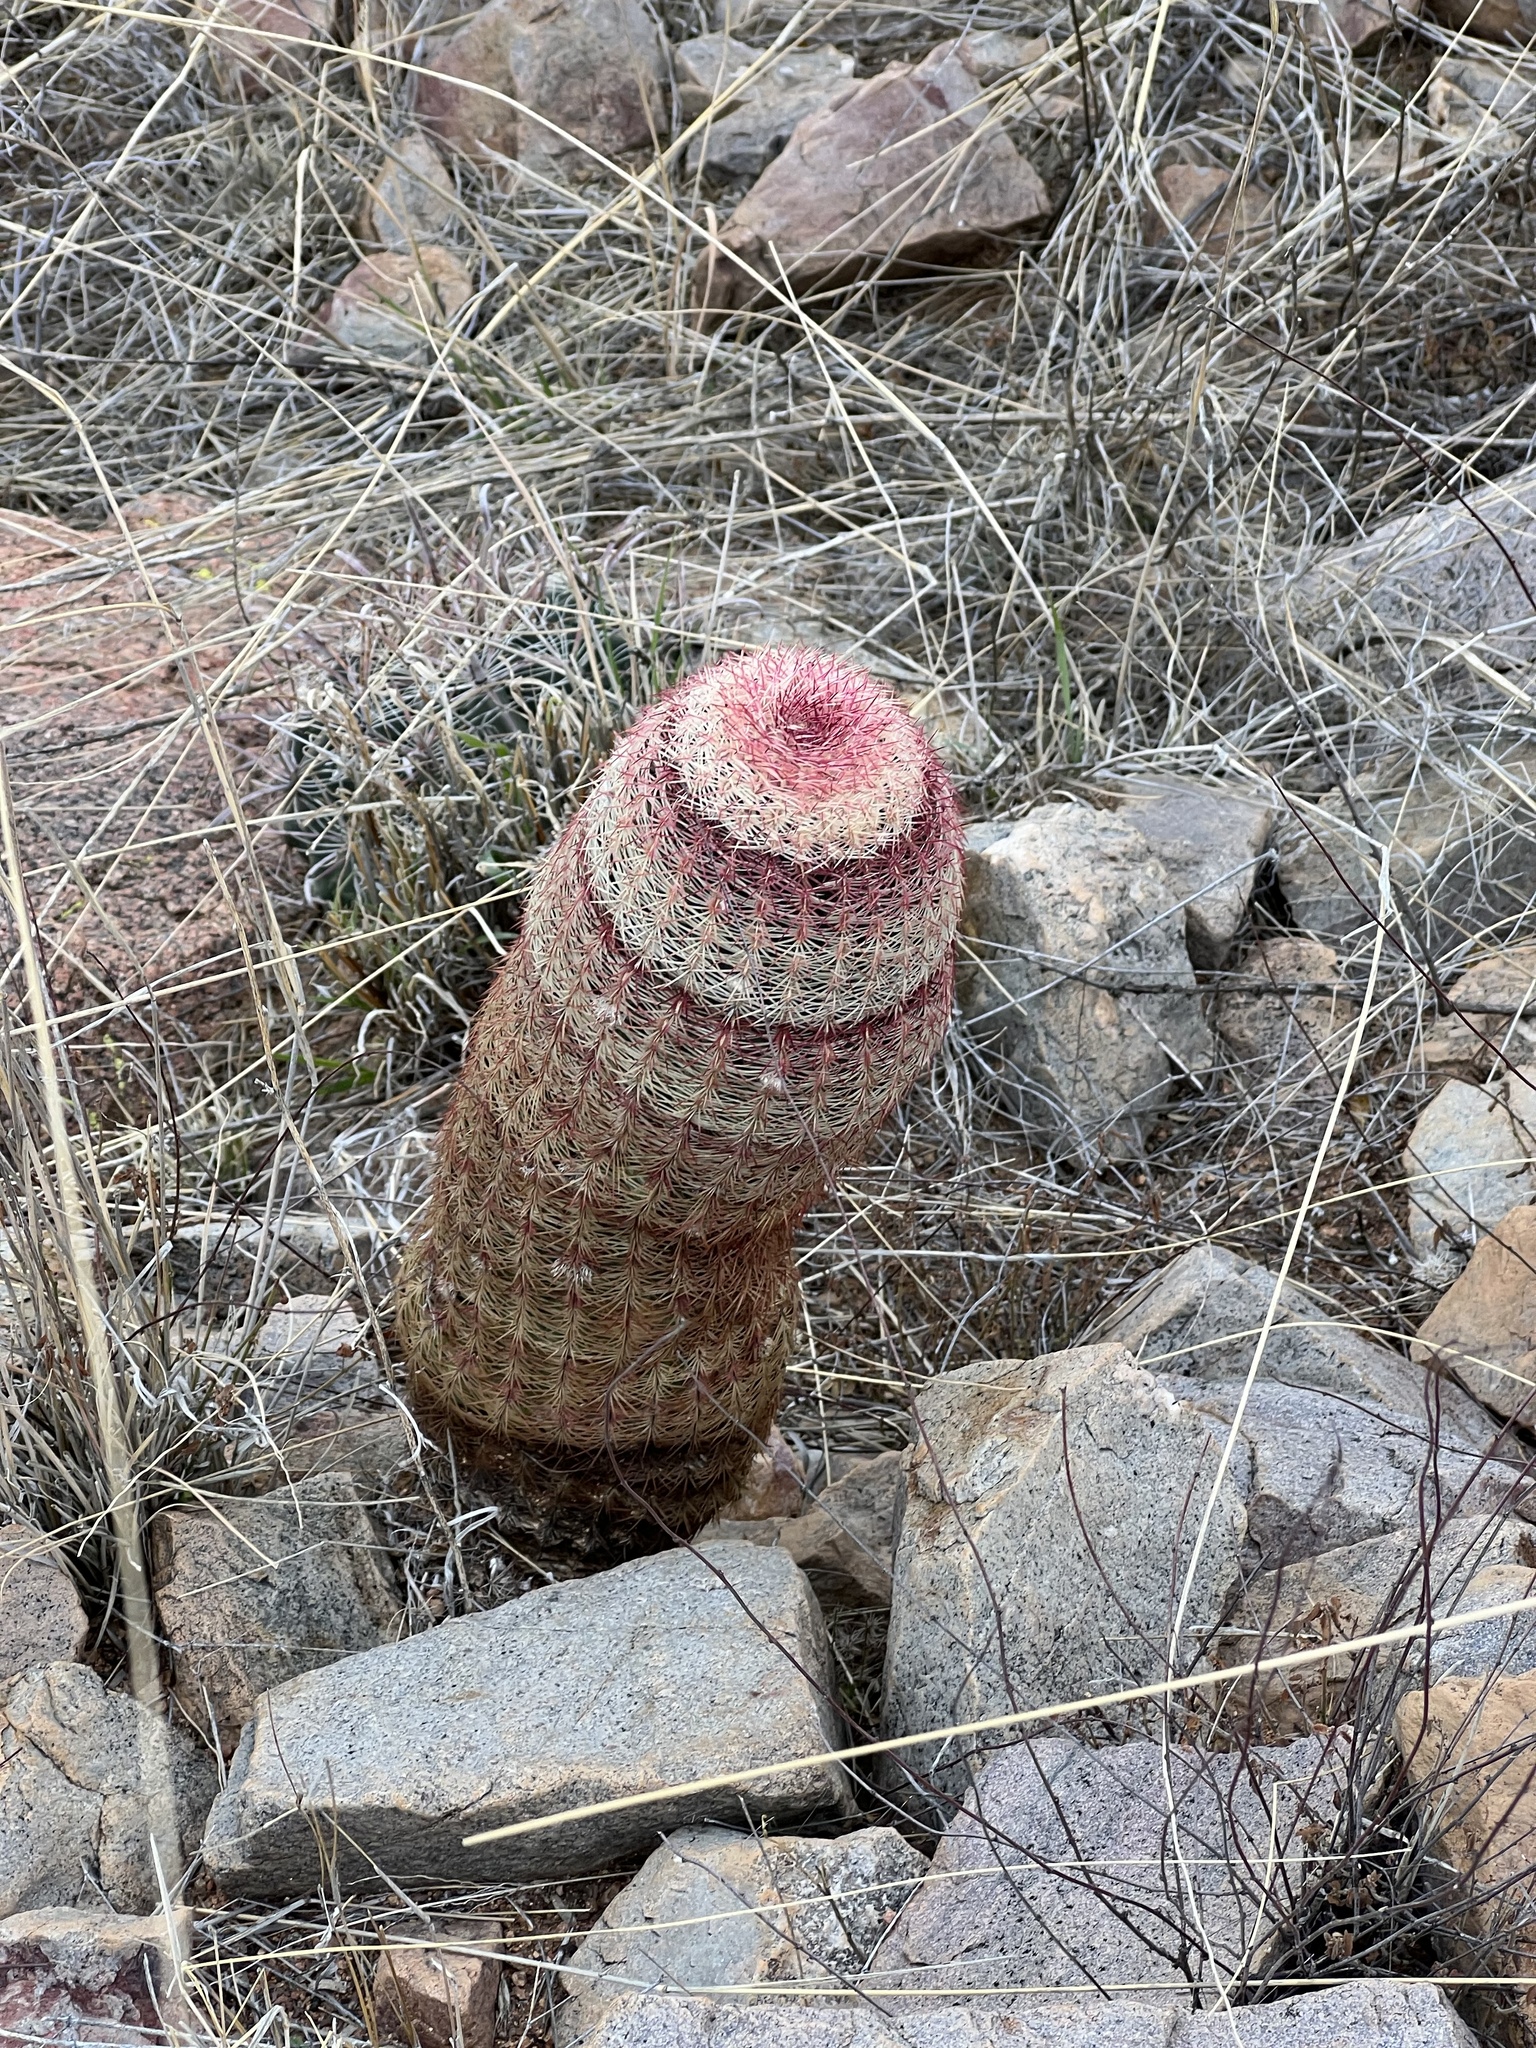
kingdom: Plantae
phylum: Tracheophyta
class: Magnoliopsida
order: Caryophyllales
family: Cactaceae
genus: Echinocereus
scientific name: Echinocereus rigidissimus
